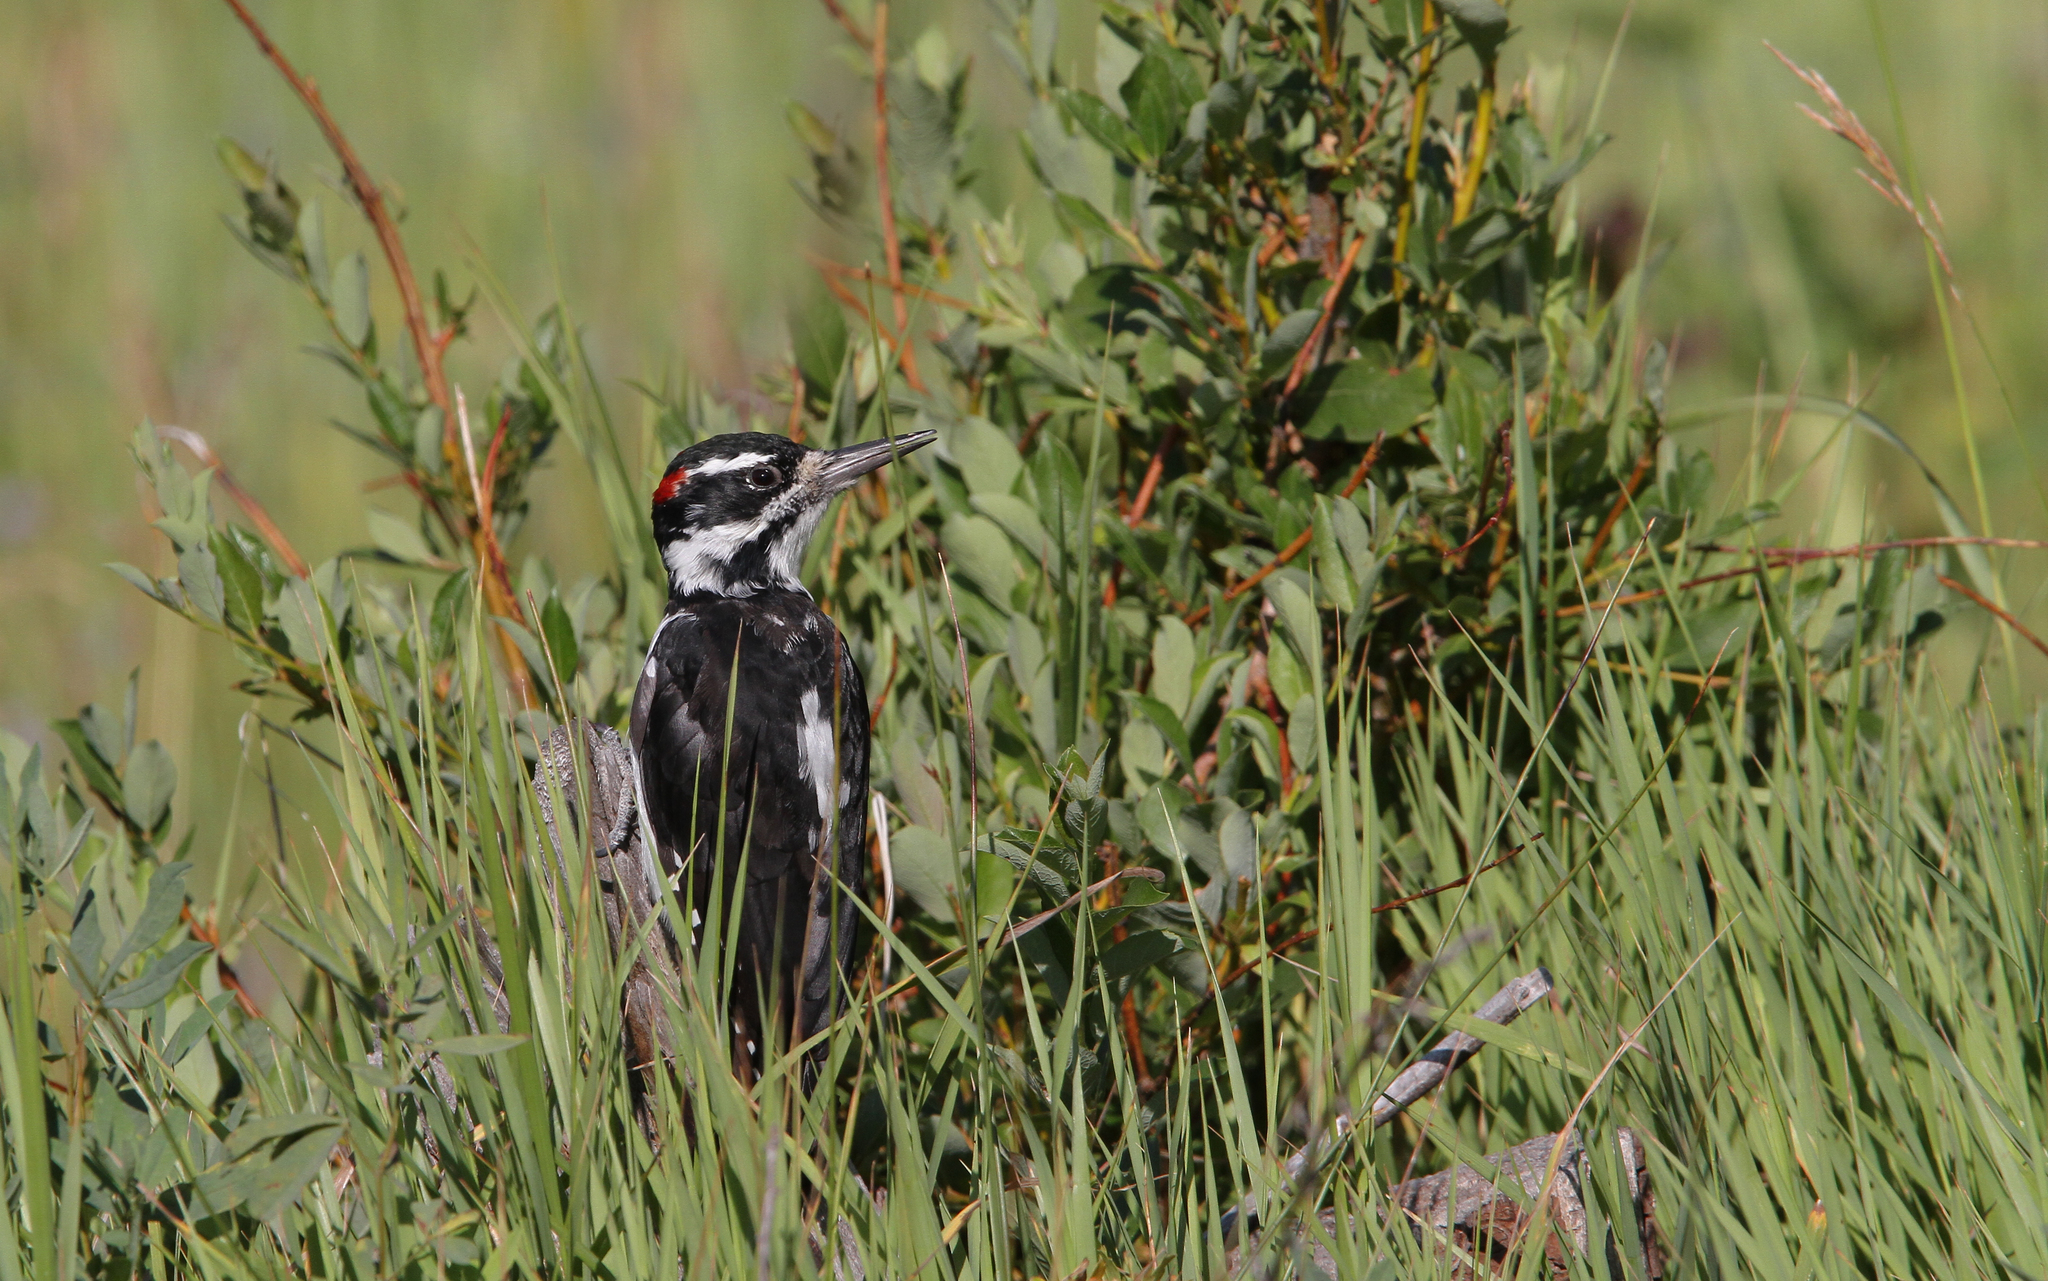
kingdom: Animalia
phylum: Chordata
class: Aves
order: Piciformes
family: Picidae
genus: Leuconotopicus
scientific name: Leuconotopicus villosus
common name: Hairy woodpecker
